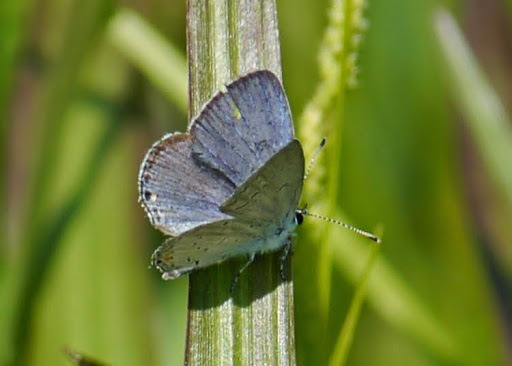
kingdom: Animalia
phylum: Arthropoda
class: Insecta
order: Lepidoptera
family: Lycaenidae
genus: Elkalyce
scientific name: Elkalyce comyntas
